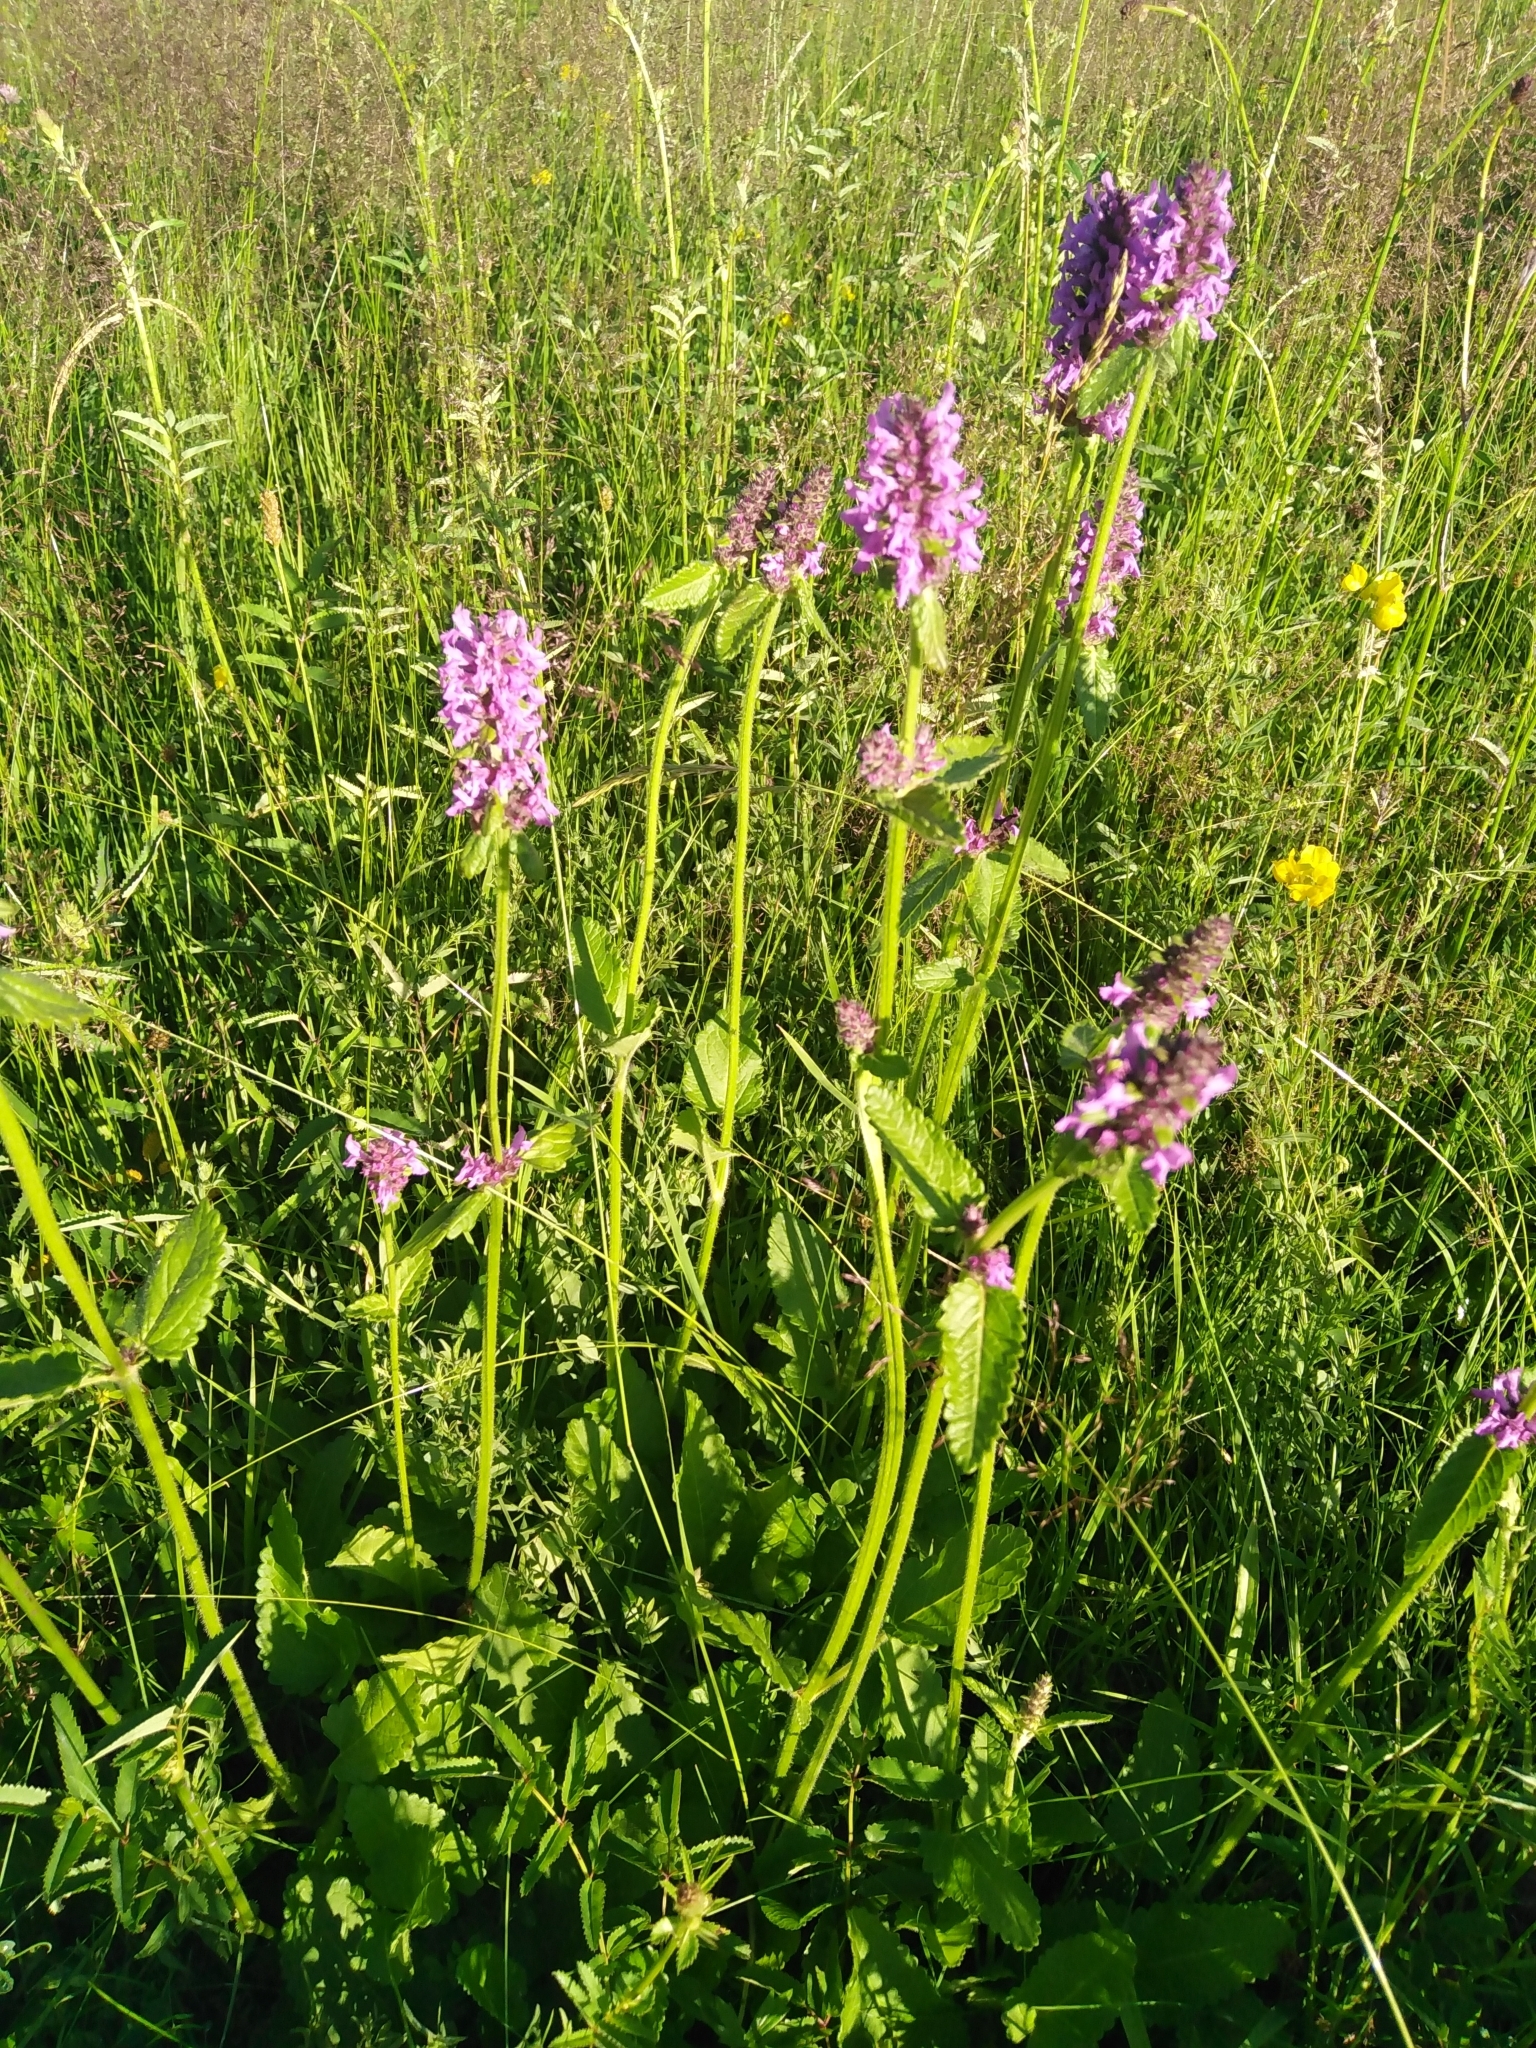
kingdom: Plantae
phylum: Tracheophyta
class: Magnoliopsida
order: Lamiales
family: Lamiaceae
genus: Betonica
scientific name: Betonica officinalis
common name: Bishop's-wort
